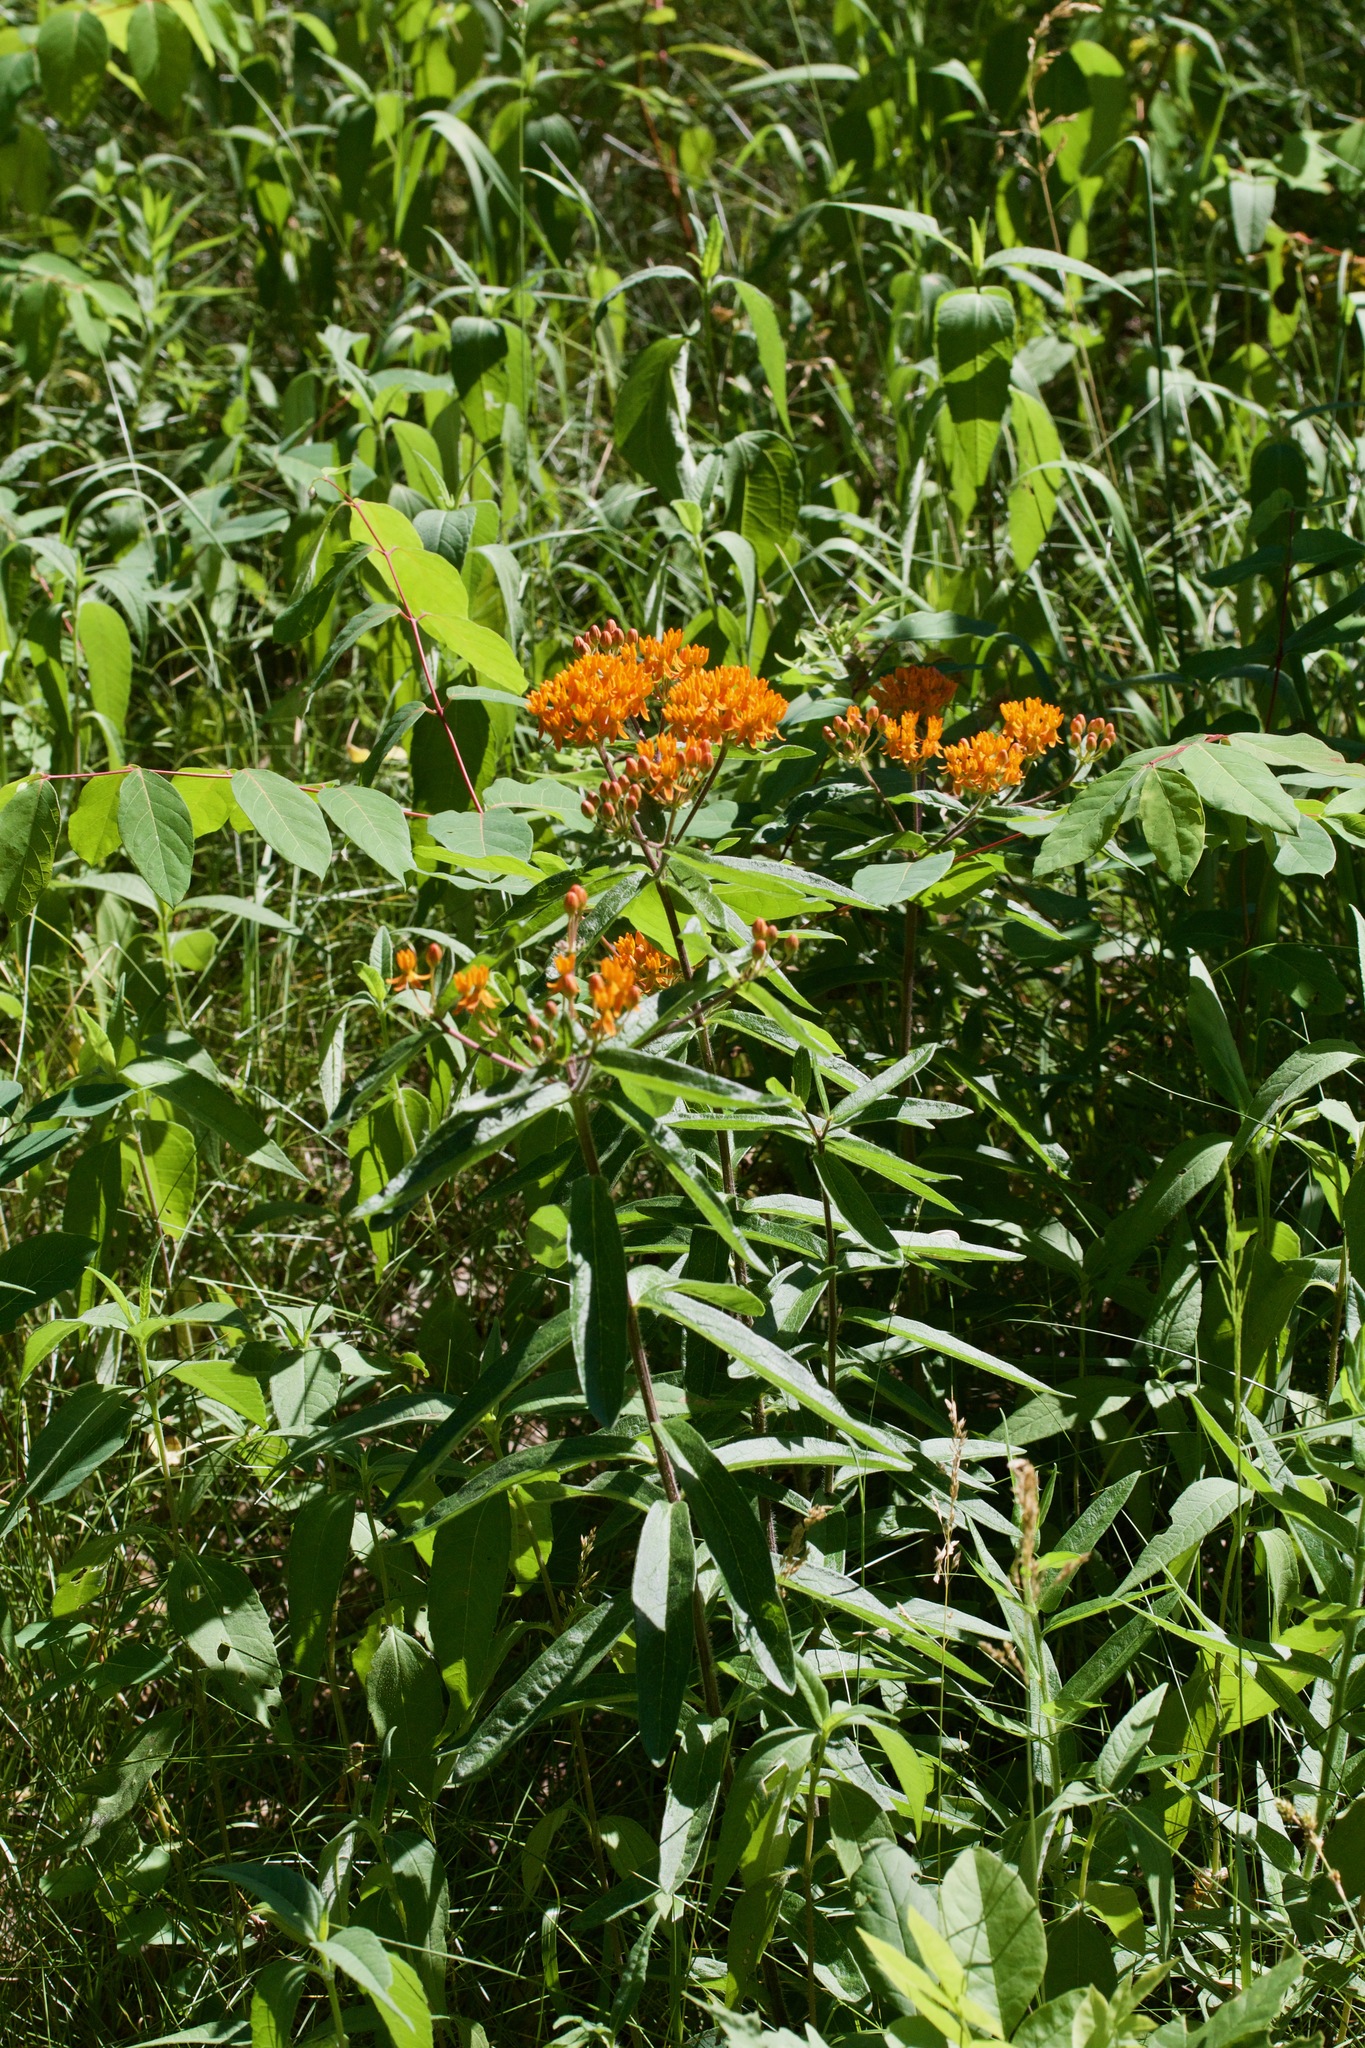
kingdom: Plantae
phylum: Tracheophyta
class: Magnoliopsida
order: Gentianales
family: Apocynaceae
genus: Asclepias
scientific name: Asclepias tuberosa
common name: Butterfly milkweed
